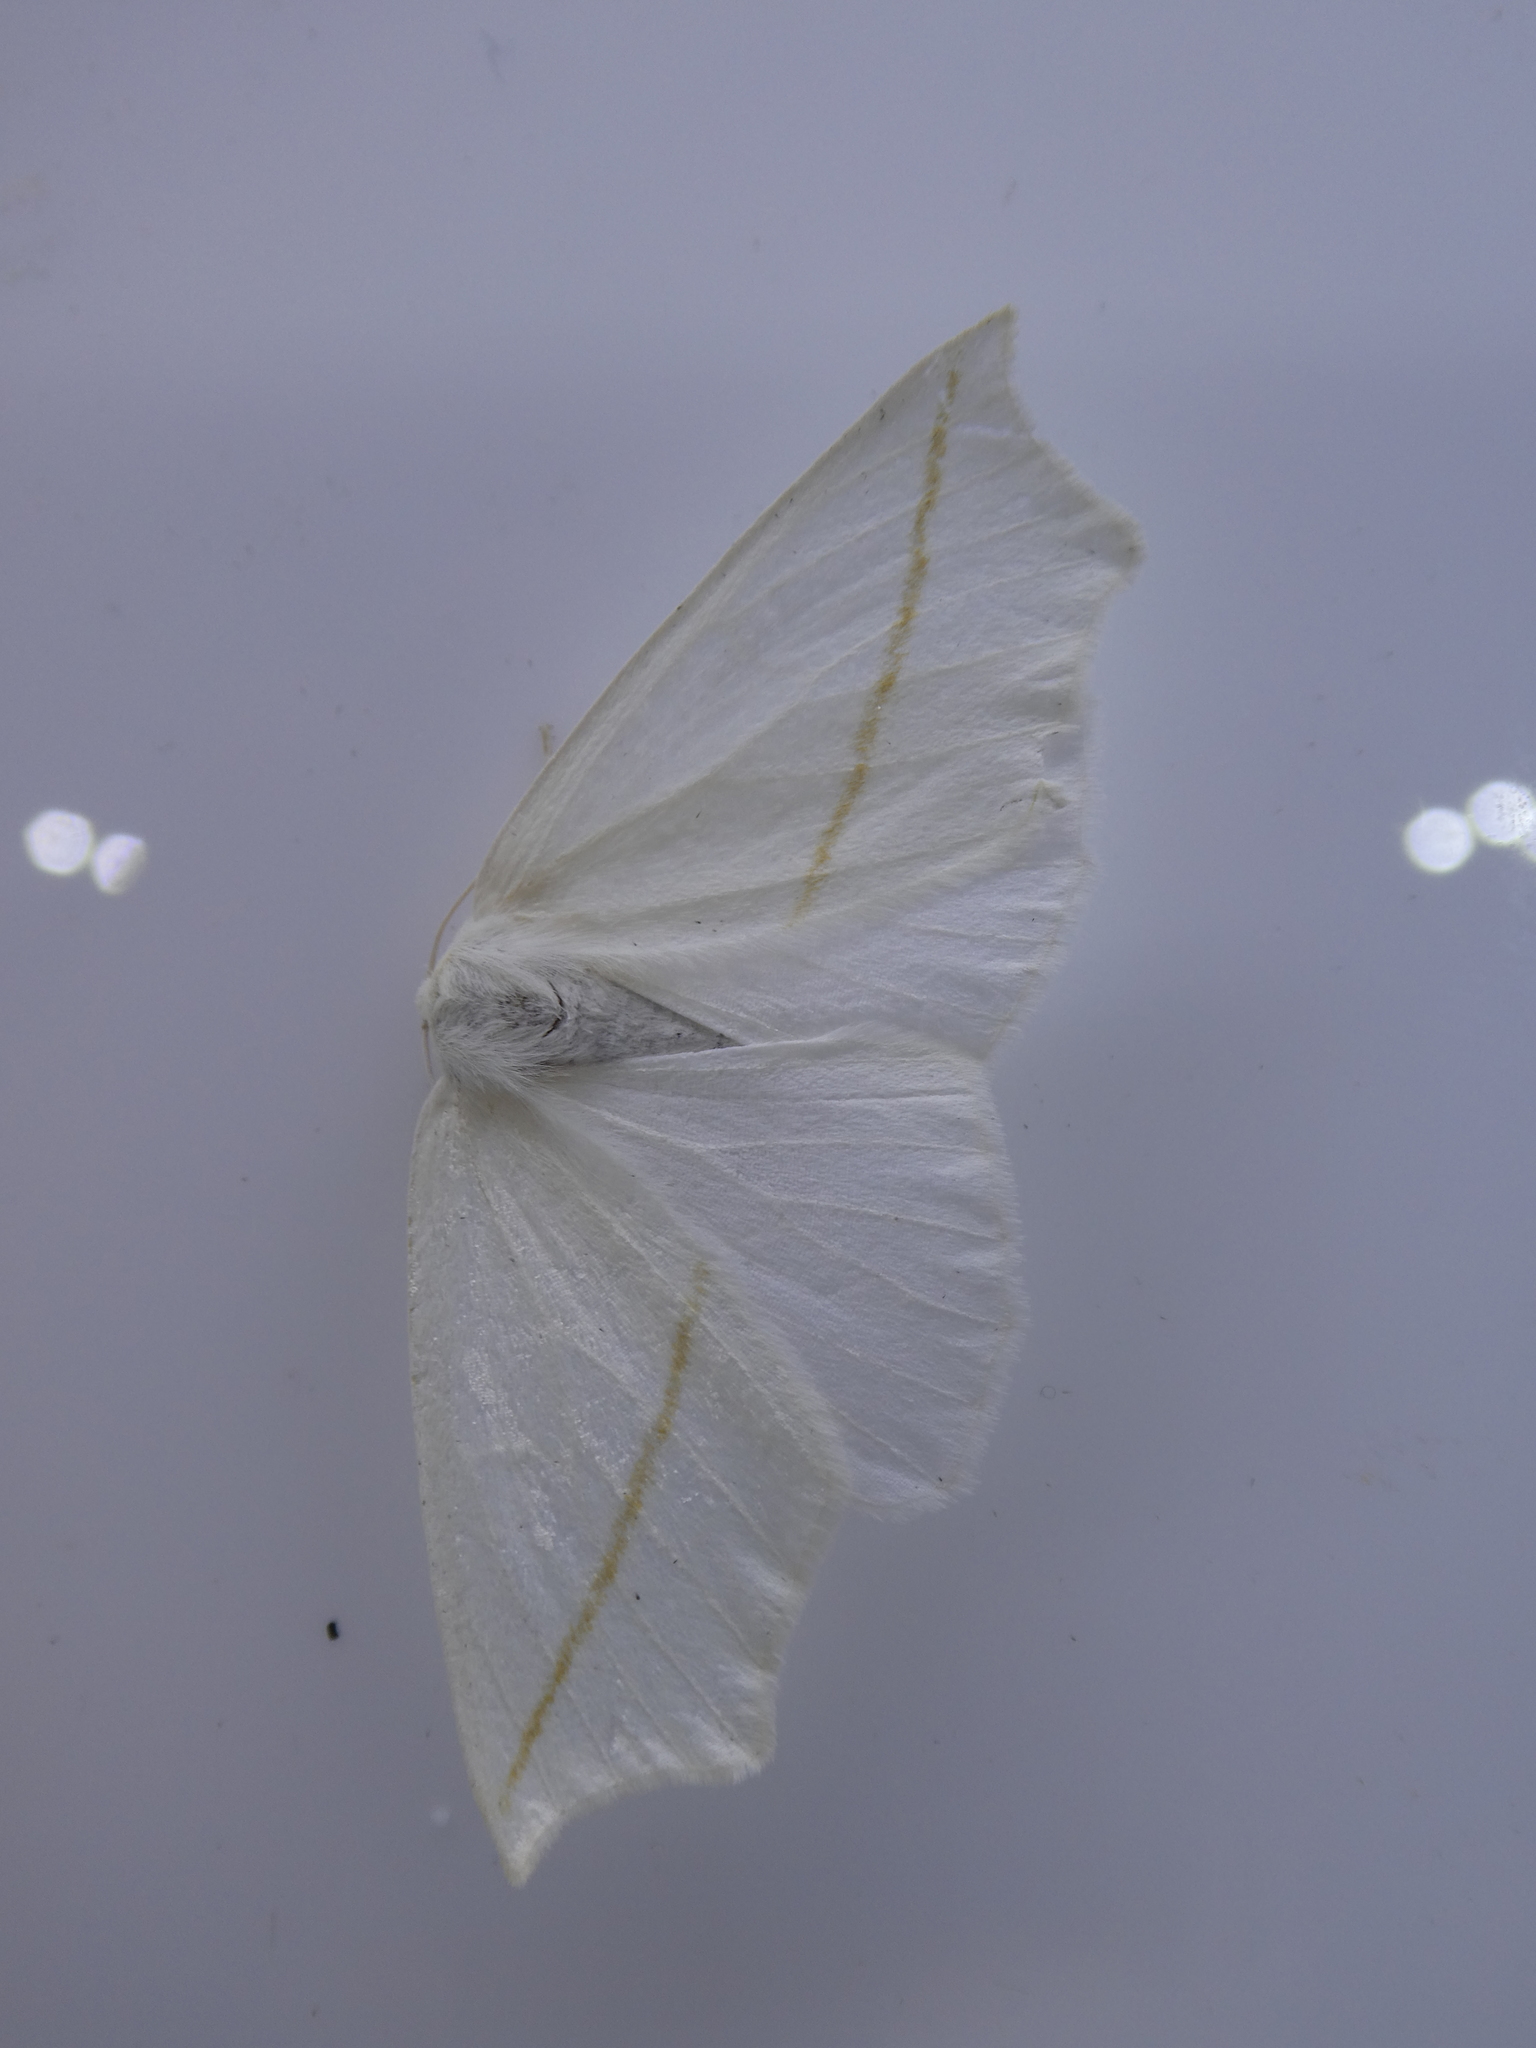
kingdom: Animalia
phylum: Arthropoda
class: Insecta
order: Lepidoptera
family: Geometridae
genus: Tetracis
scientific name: Tetracis cachexiata
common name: White slant-line
